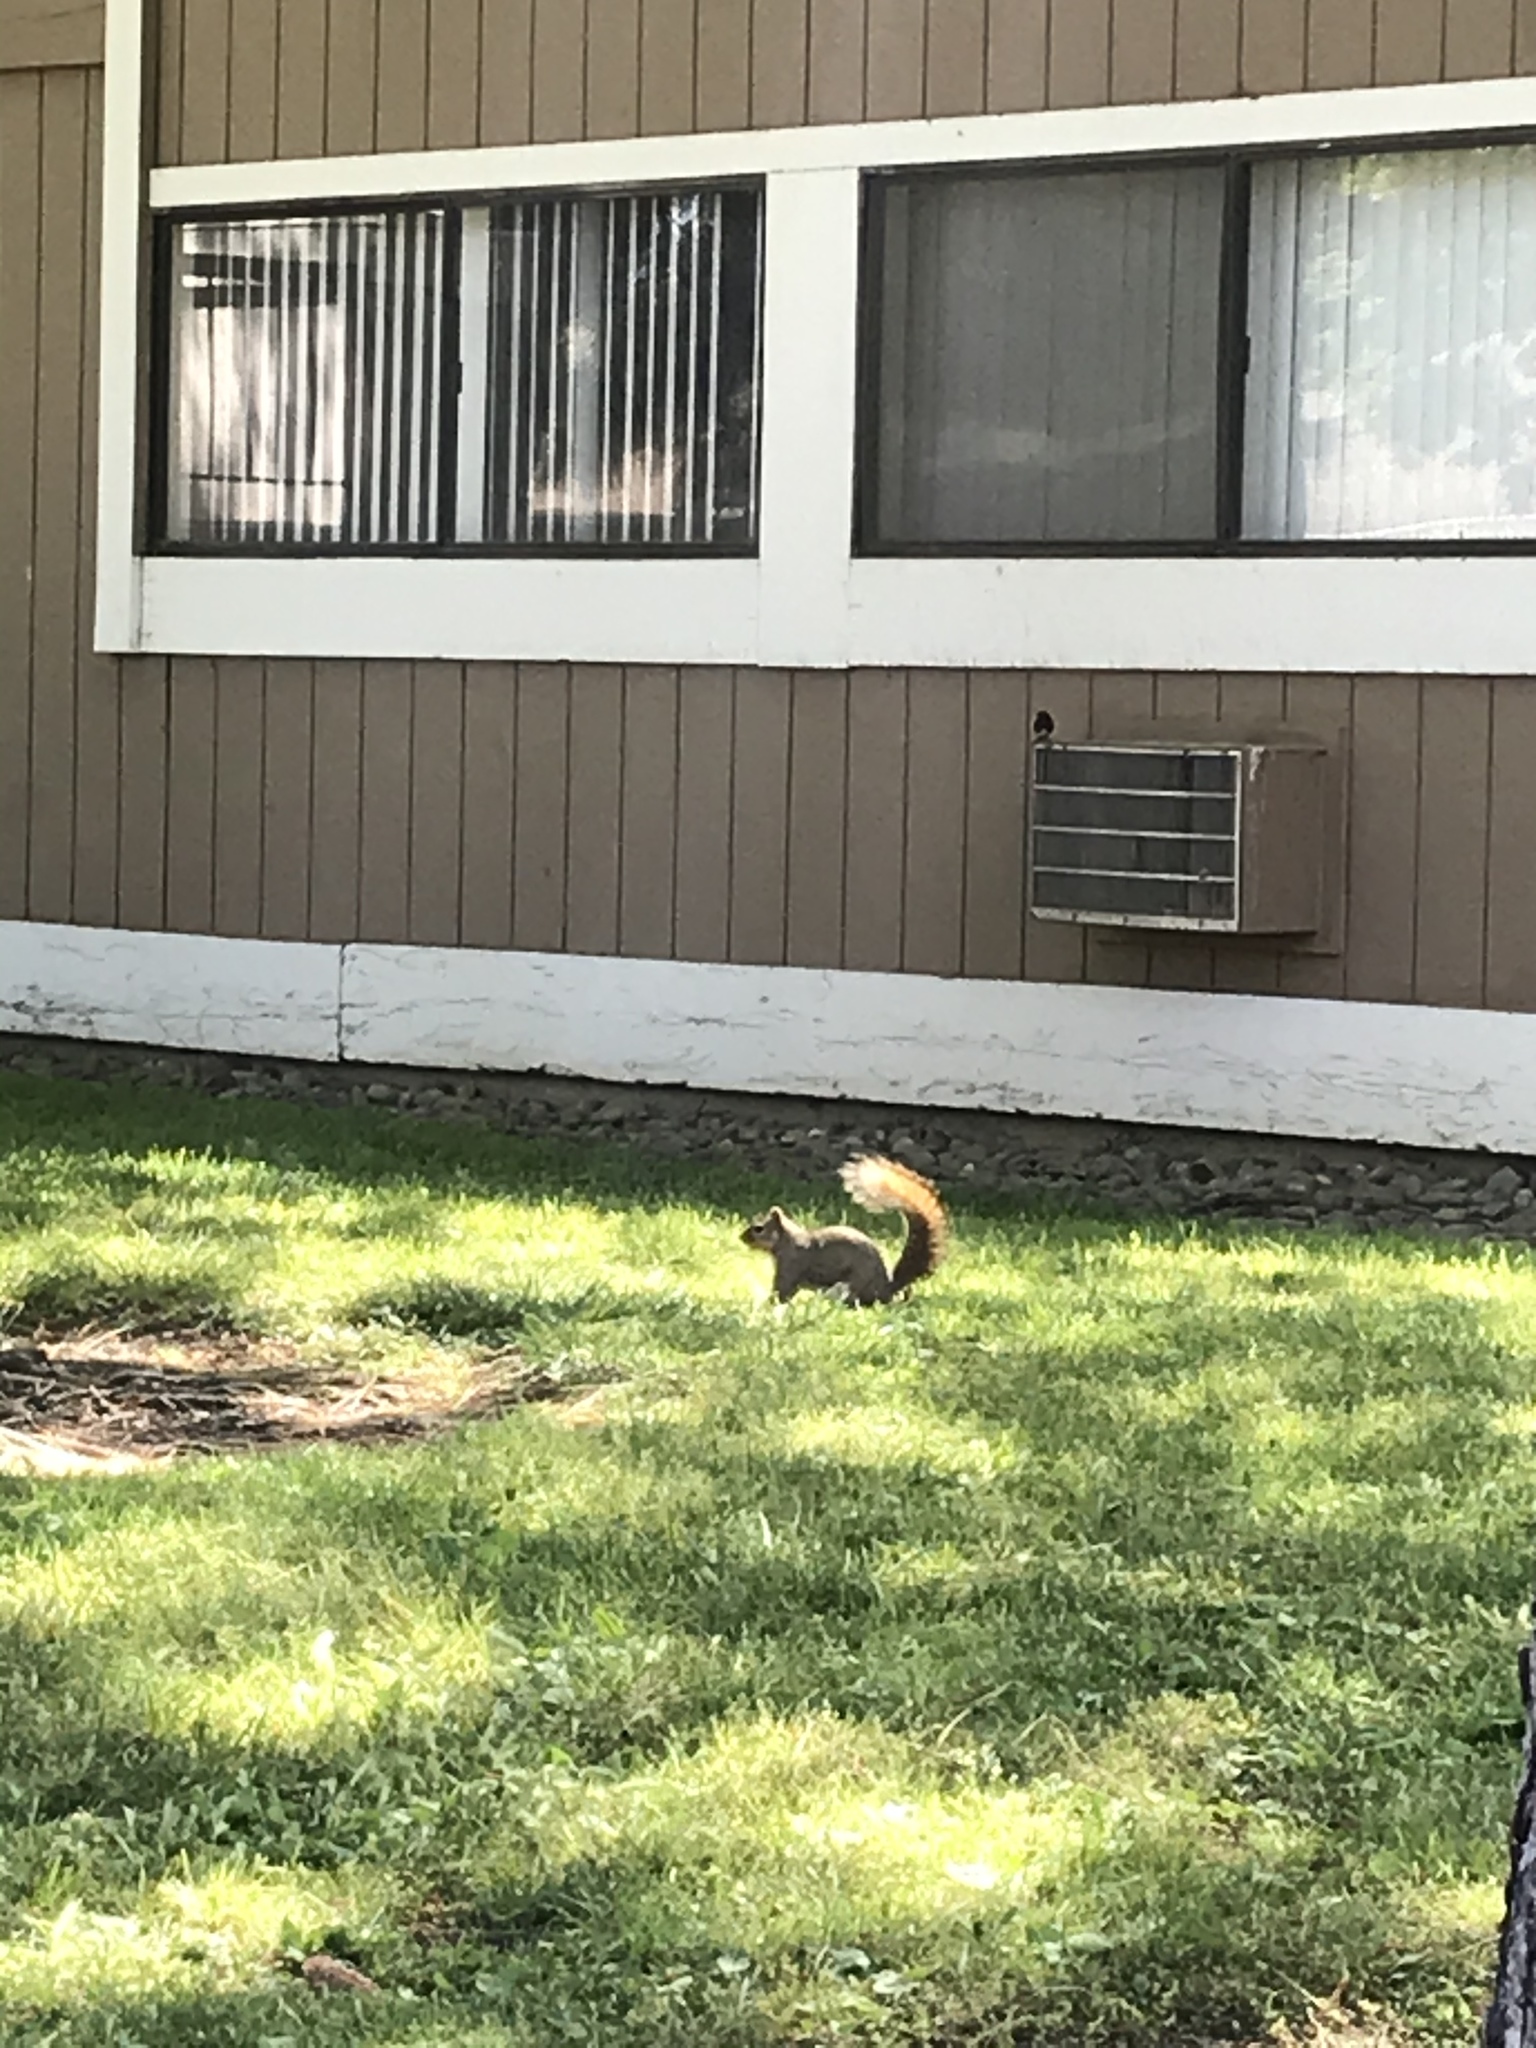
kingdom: Animalia
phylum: Chordata
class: Mammalia
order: Rodentia
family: Sciuridae
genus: Sciurus
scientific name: Sciurus niger
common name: Fox squirrel
